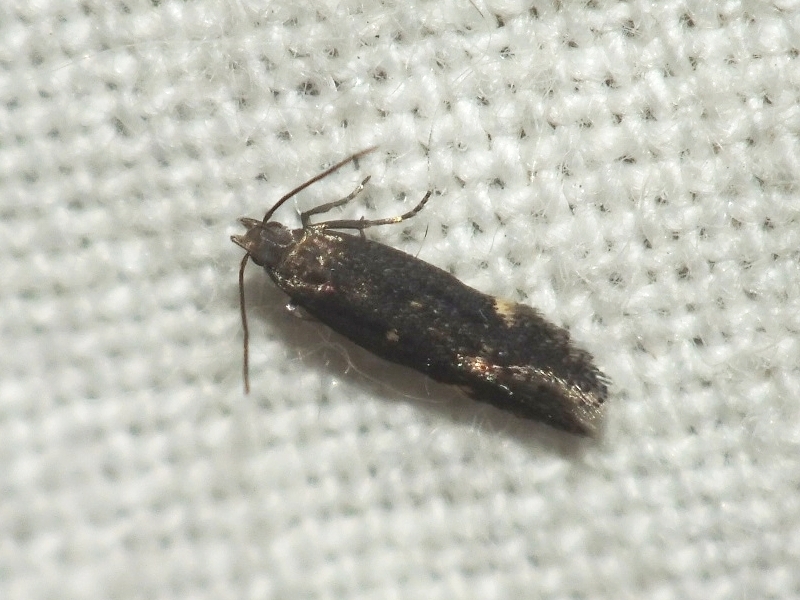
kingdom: Animalia
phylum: Arthropoda
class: Insecta
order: Lepidoptera
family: Gelechiidae
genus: Aproaerema
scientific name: Aproaerema anthyllidella
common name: Vetch sober
